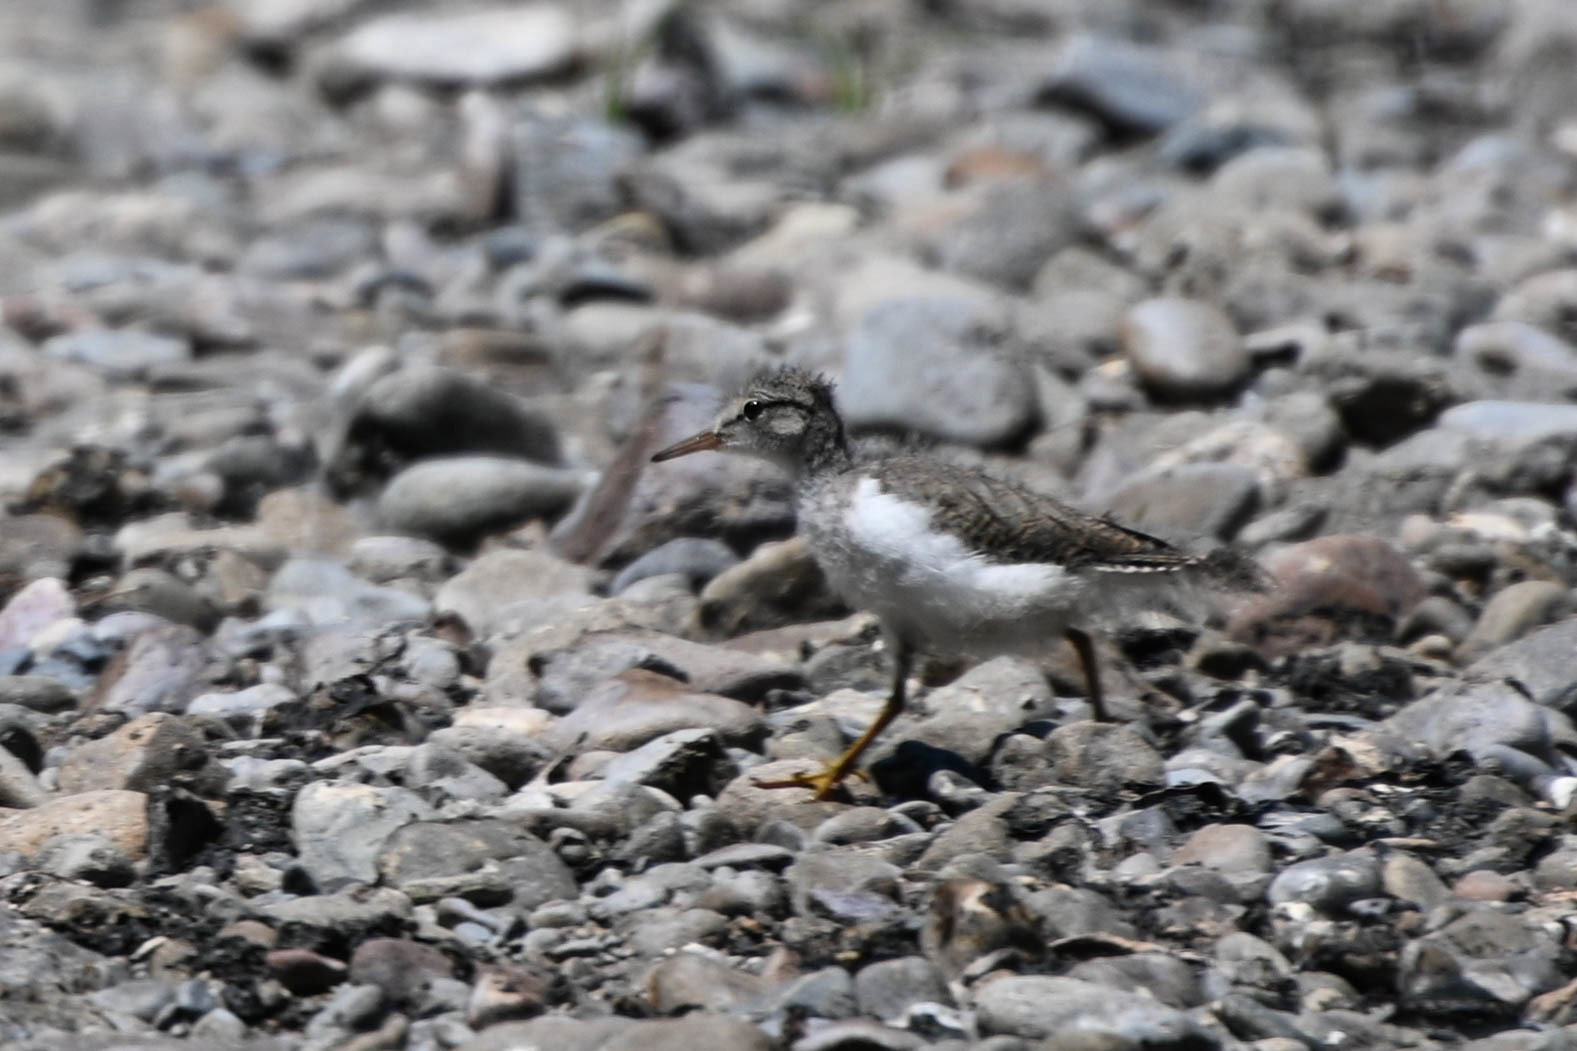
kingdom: Animalia
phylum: Chordata
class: Aves
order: Charadriiformes
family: Scolopacidae
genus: Actitis
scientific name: Actitis macularius
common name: Spotted sandpiper
